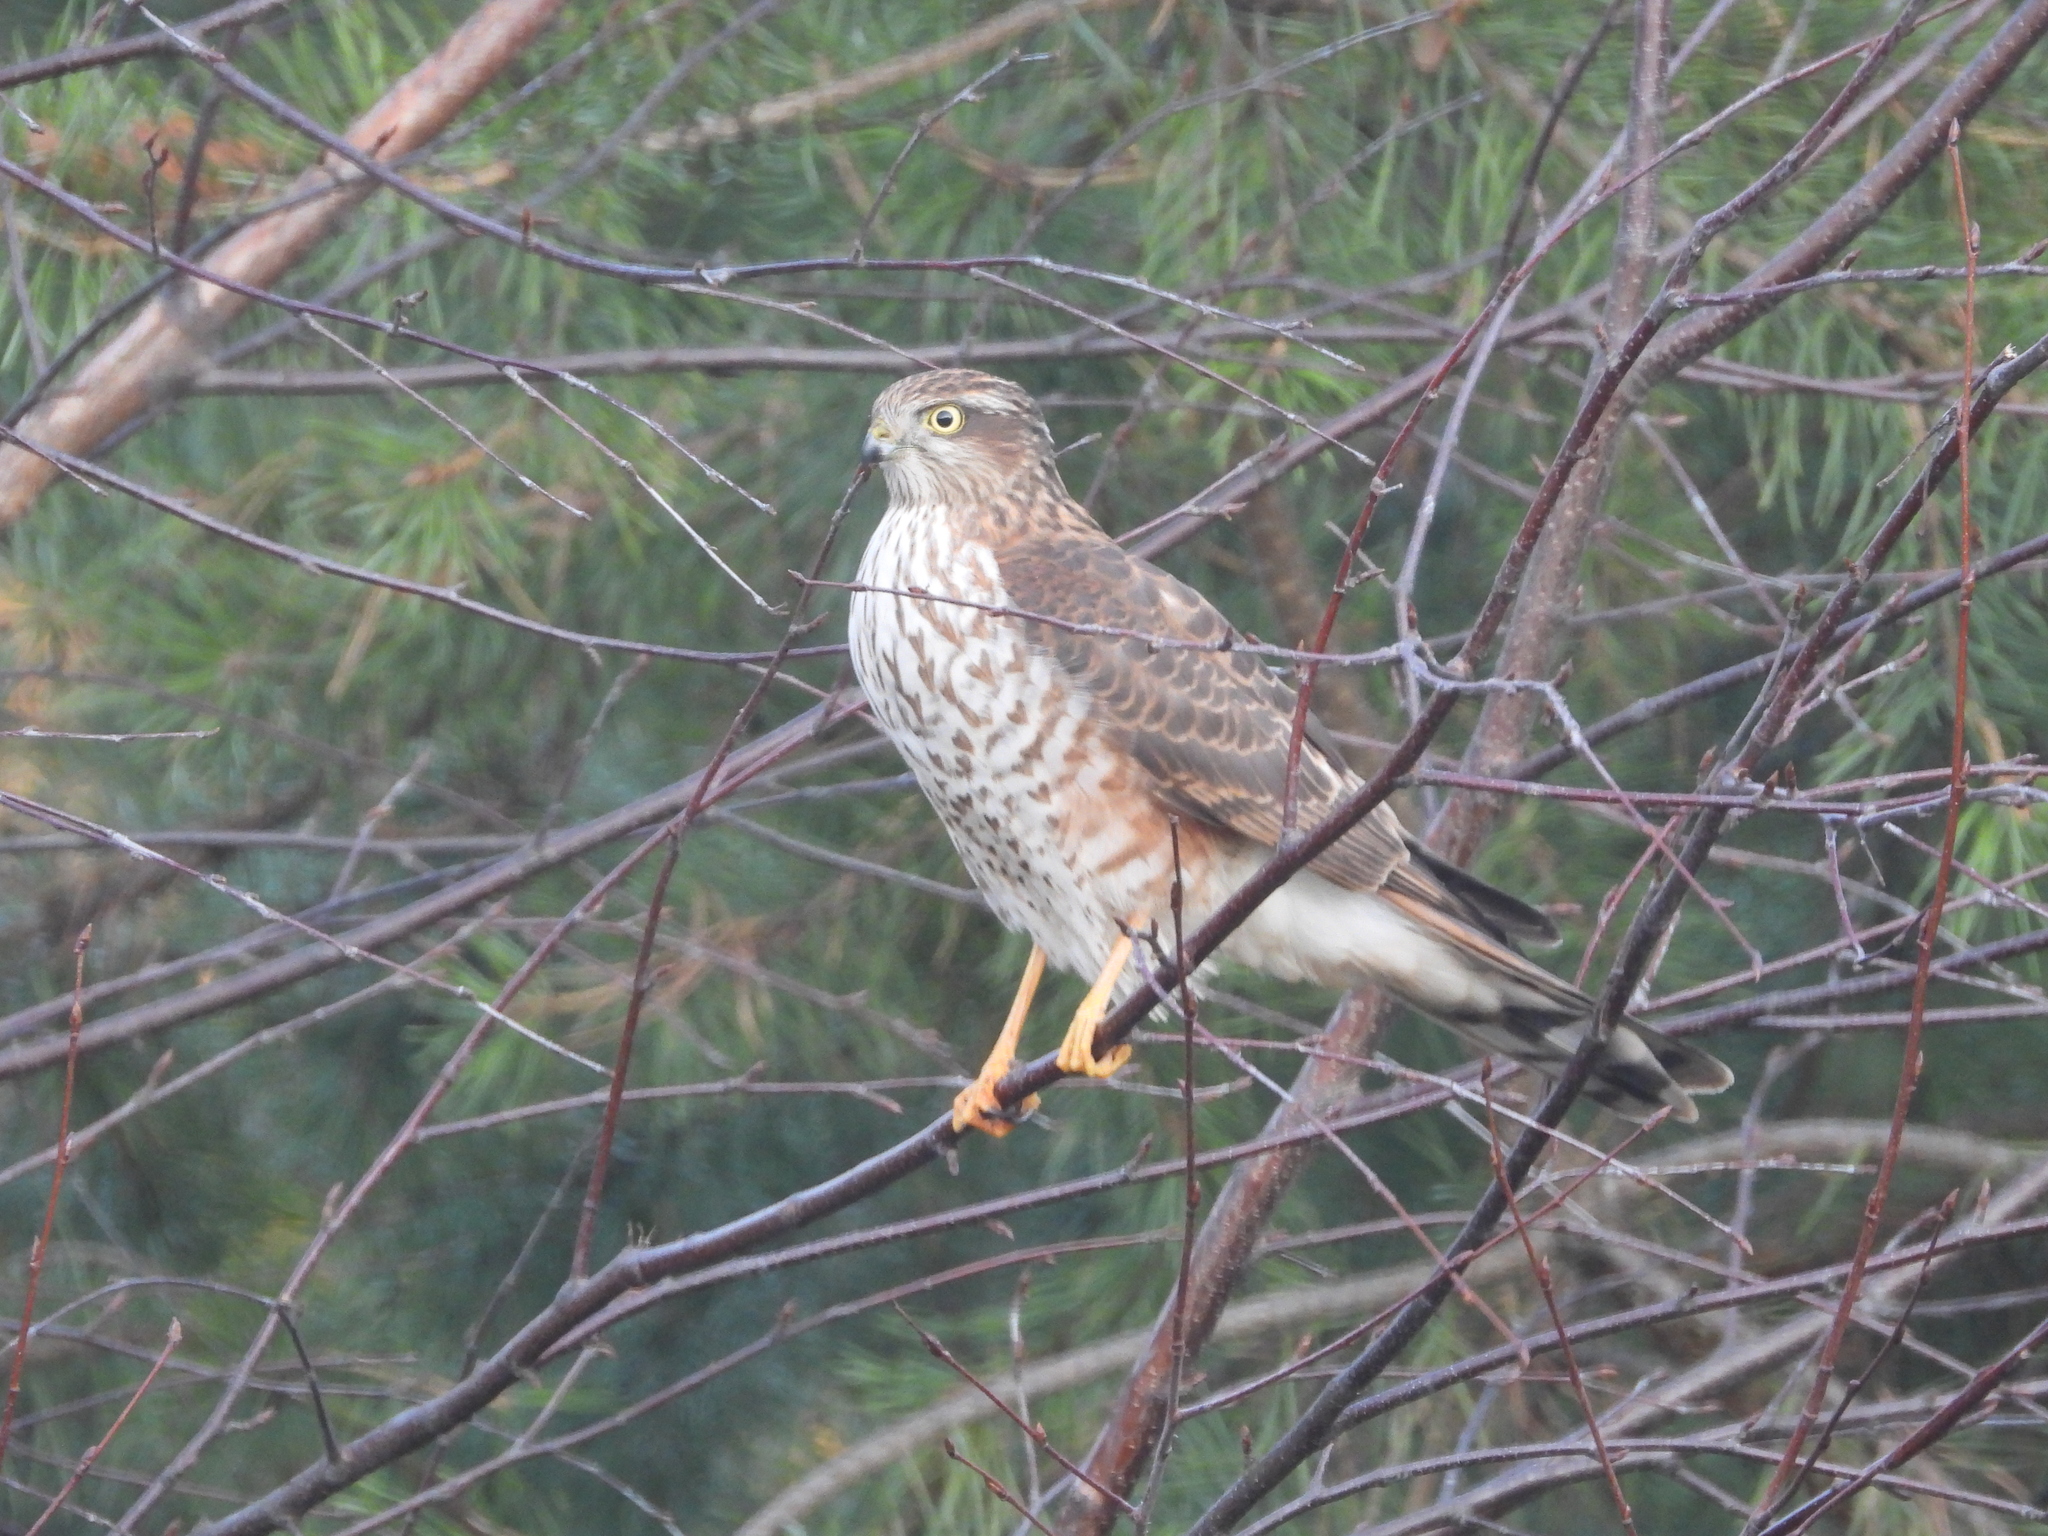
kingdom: Animalia
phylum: Chordata
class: Aves
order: Accipitriformes
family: Accipitridae
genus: Accipiter
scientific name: Accipiter nisus
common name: Eurasian sparrowhawk
